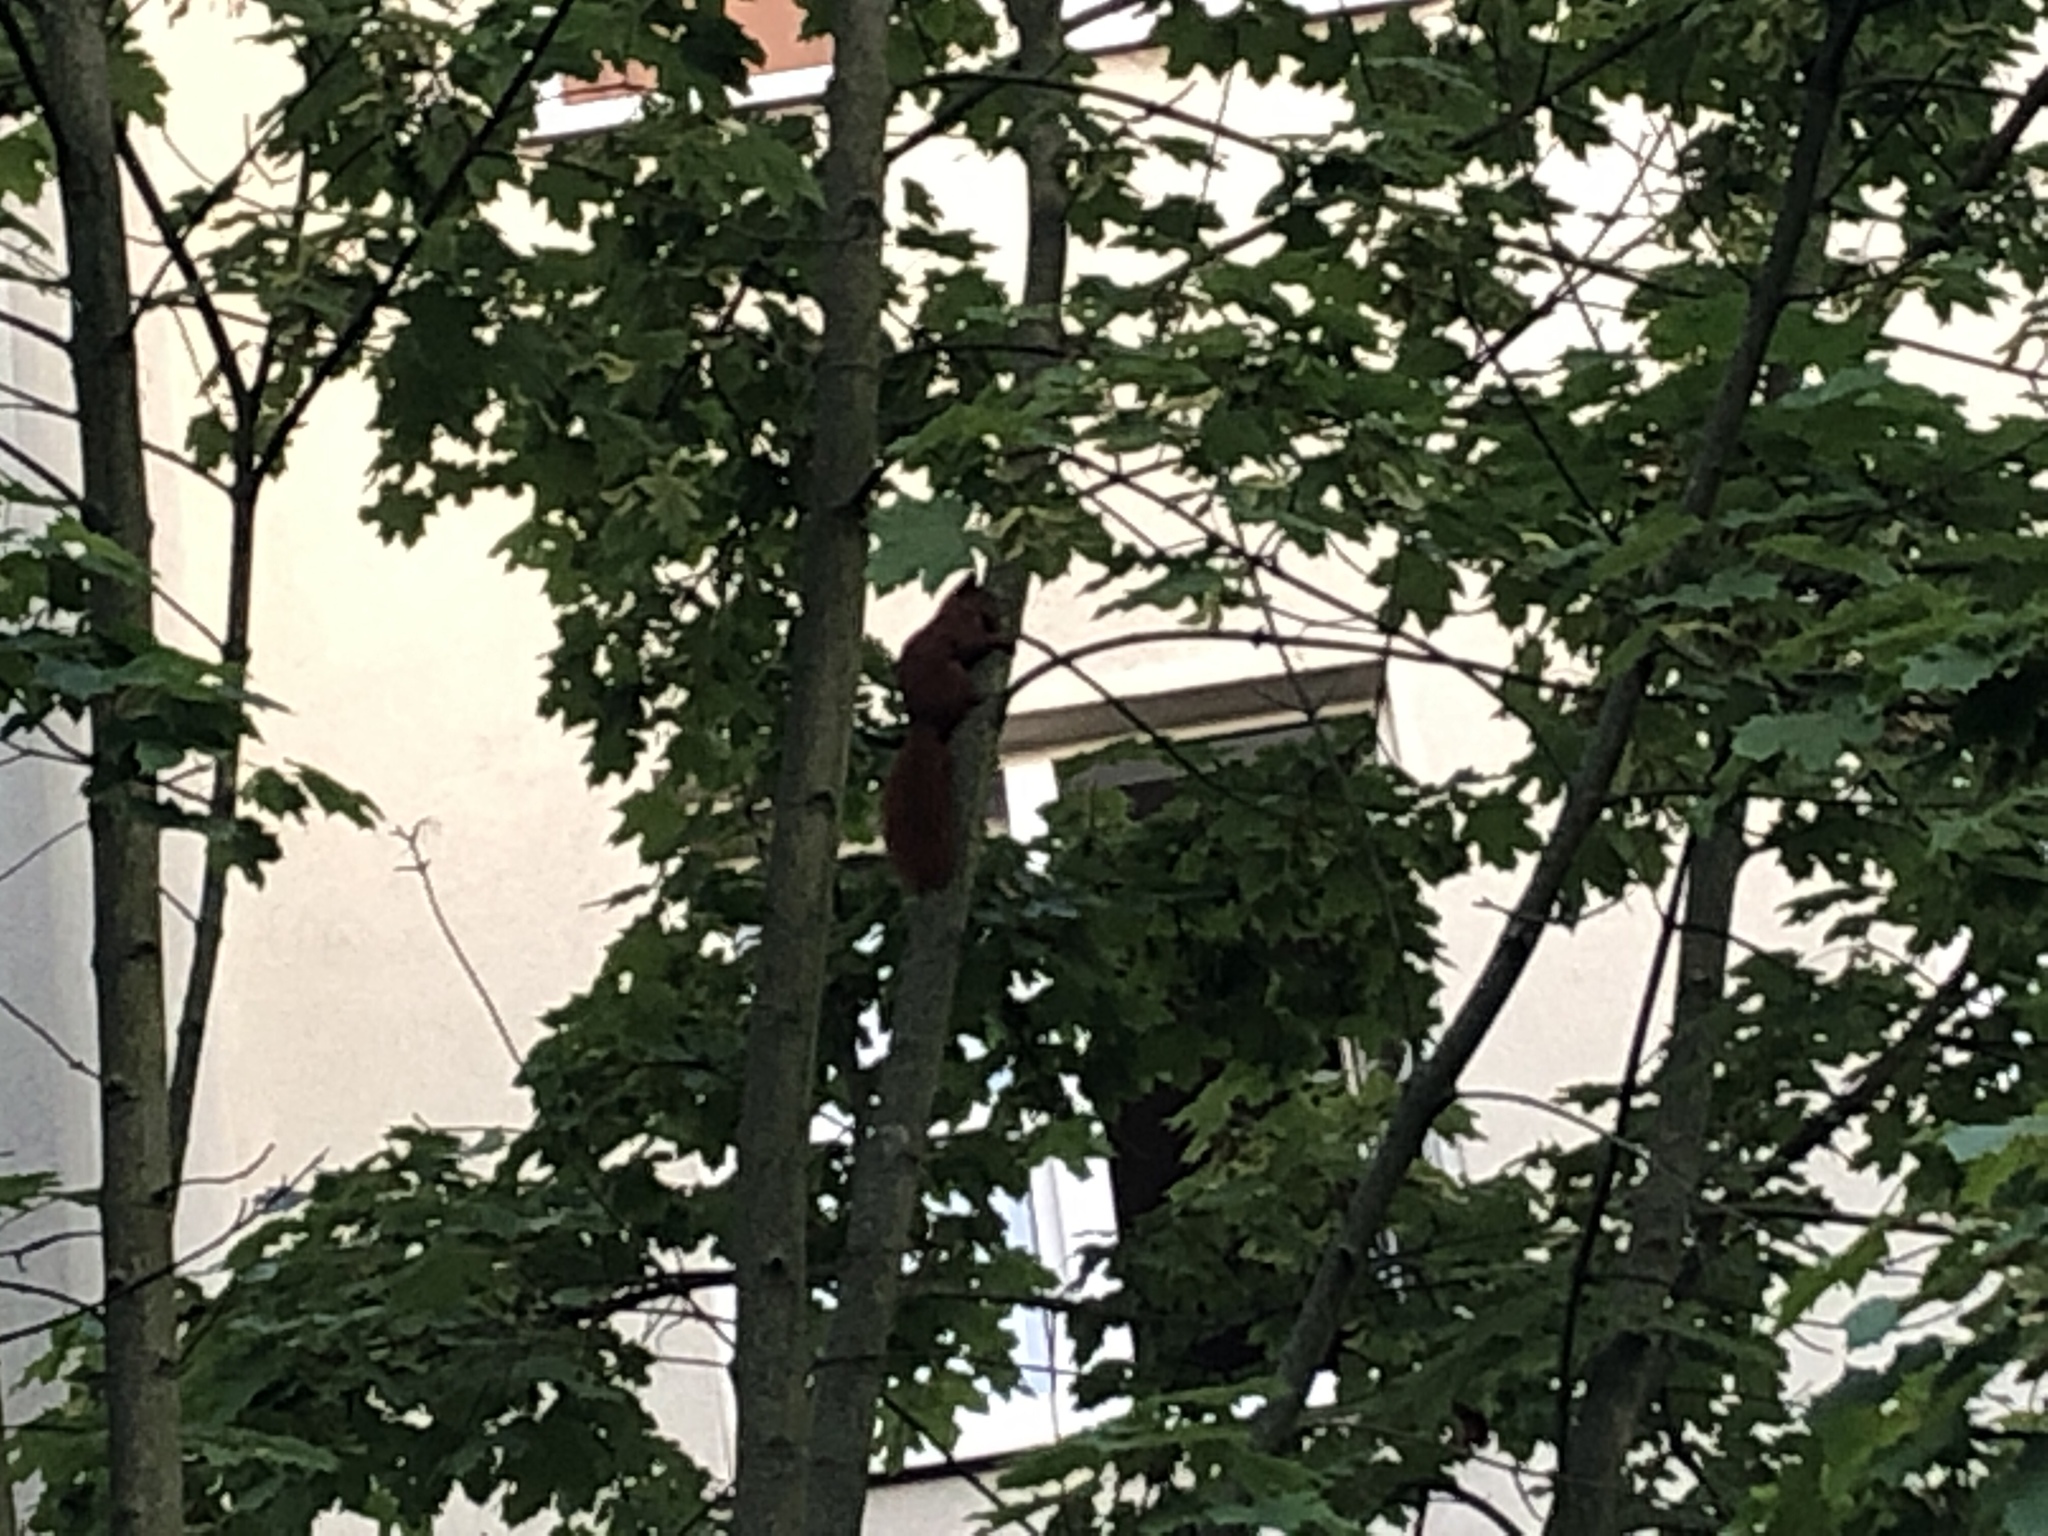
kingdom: Animalia
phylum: Chordata
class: Mammalia
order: Rodentia
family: Sciuridae
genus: Sciurus
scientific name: Sciurus vulgaris
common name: Eurasian red squirrel
